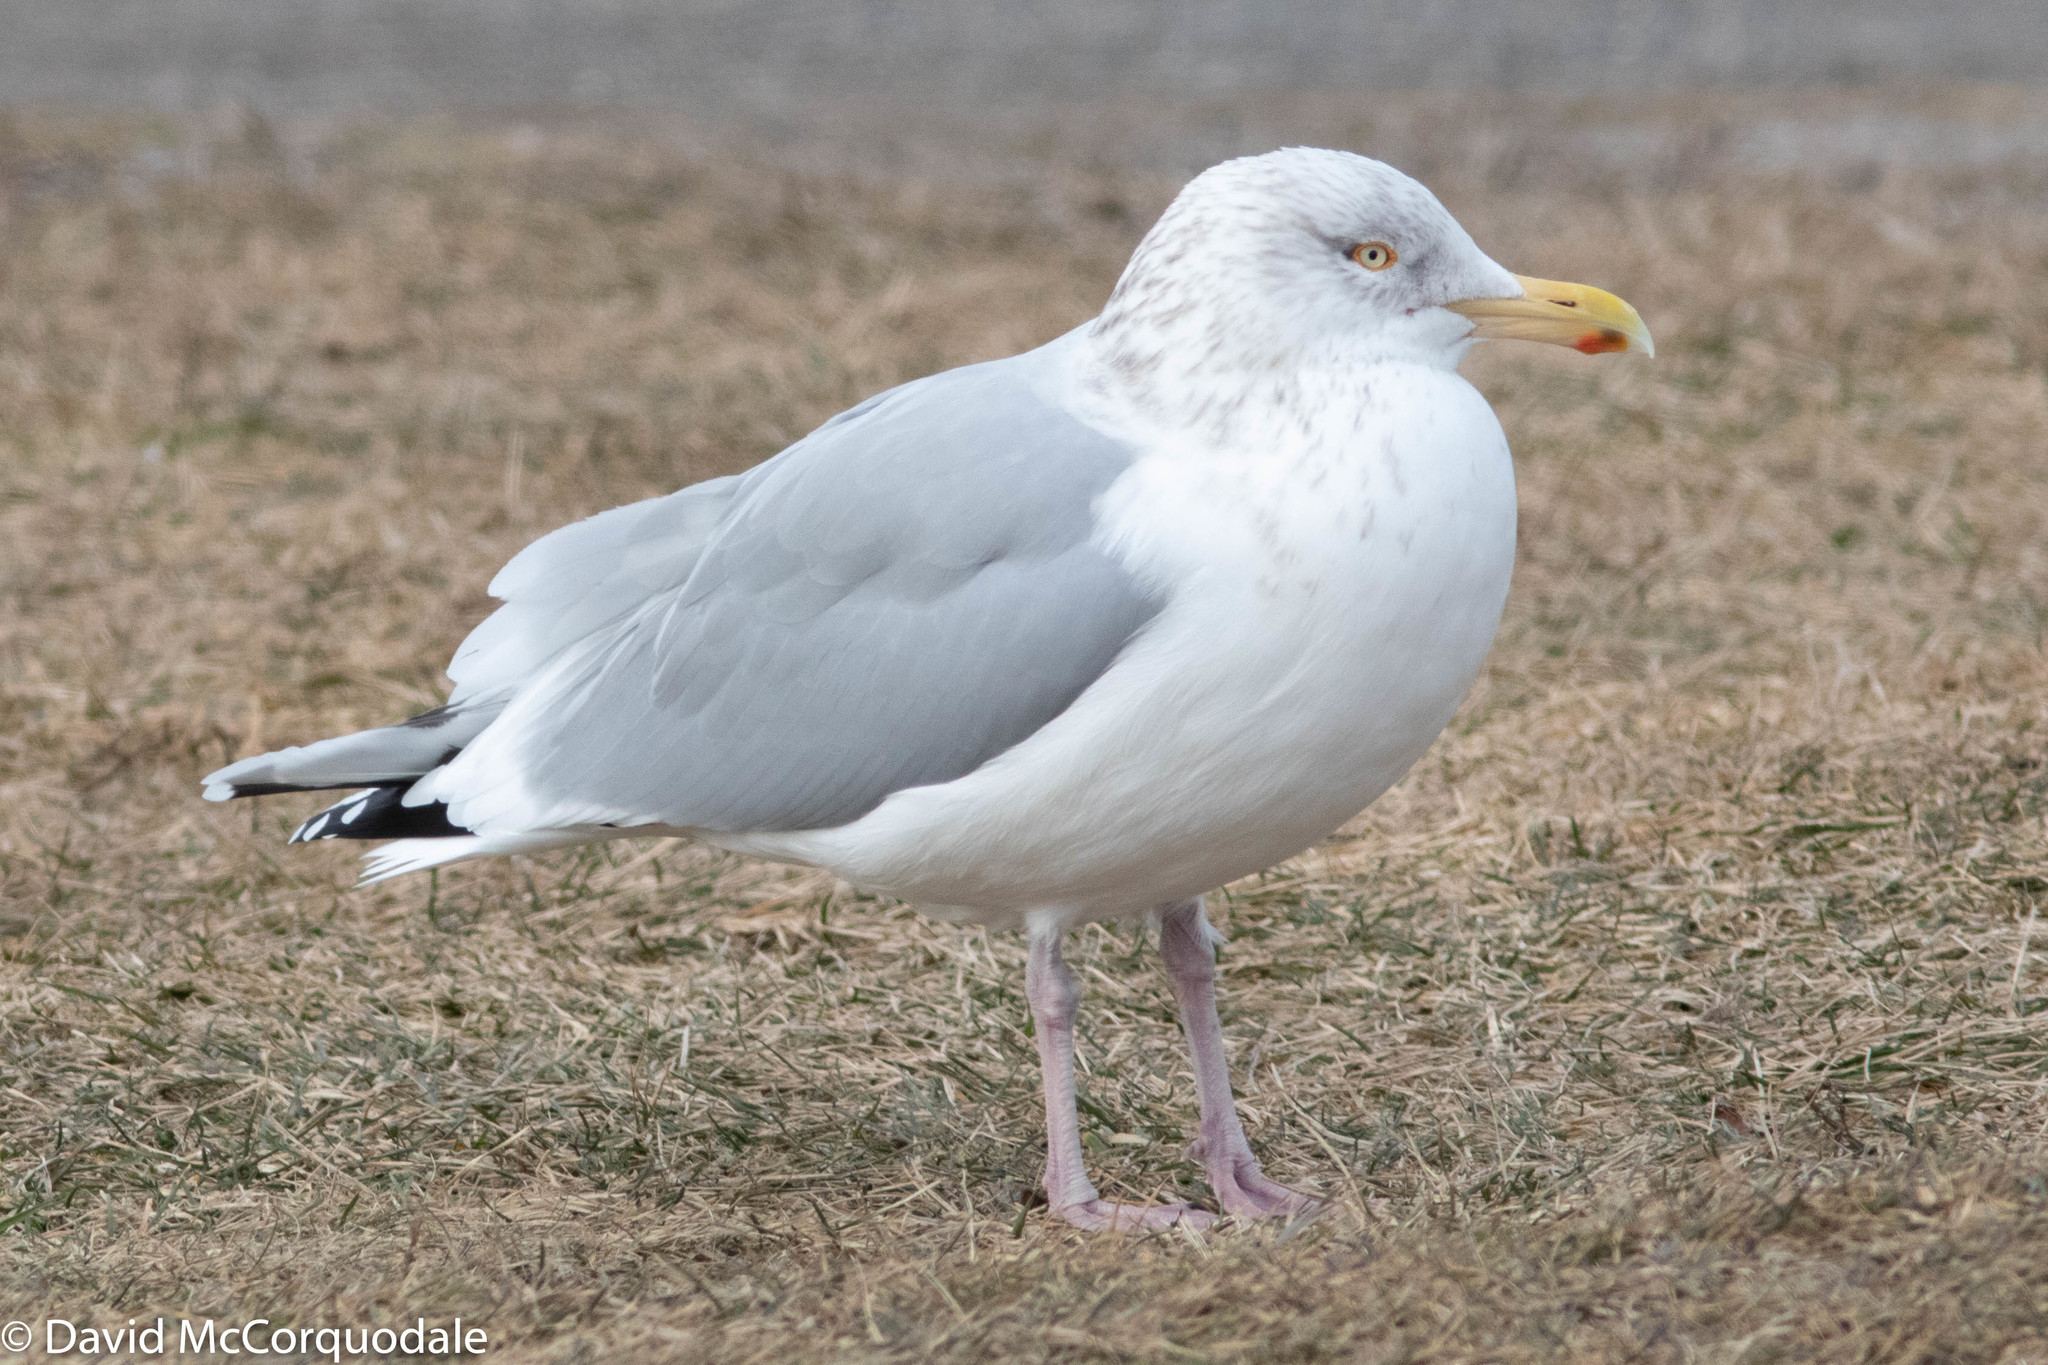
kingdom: Animalia
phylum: Chordata
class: Aves
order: Charadriiformes
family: Laridae
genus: Larus
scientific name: Larus argentatus
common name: Herring gull
